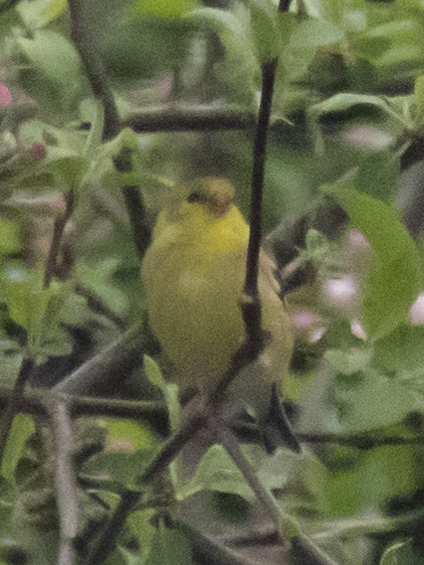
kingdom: Animalia
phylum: Chordata
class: Aves
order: Passeriformes
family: Fringillidae
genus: Spinus
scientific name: Spinus tristis
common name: American goldfinch
